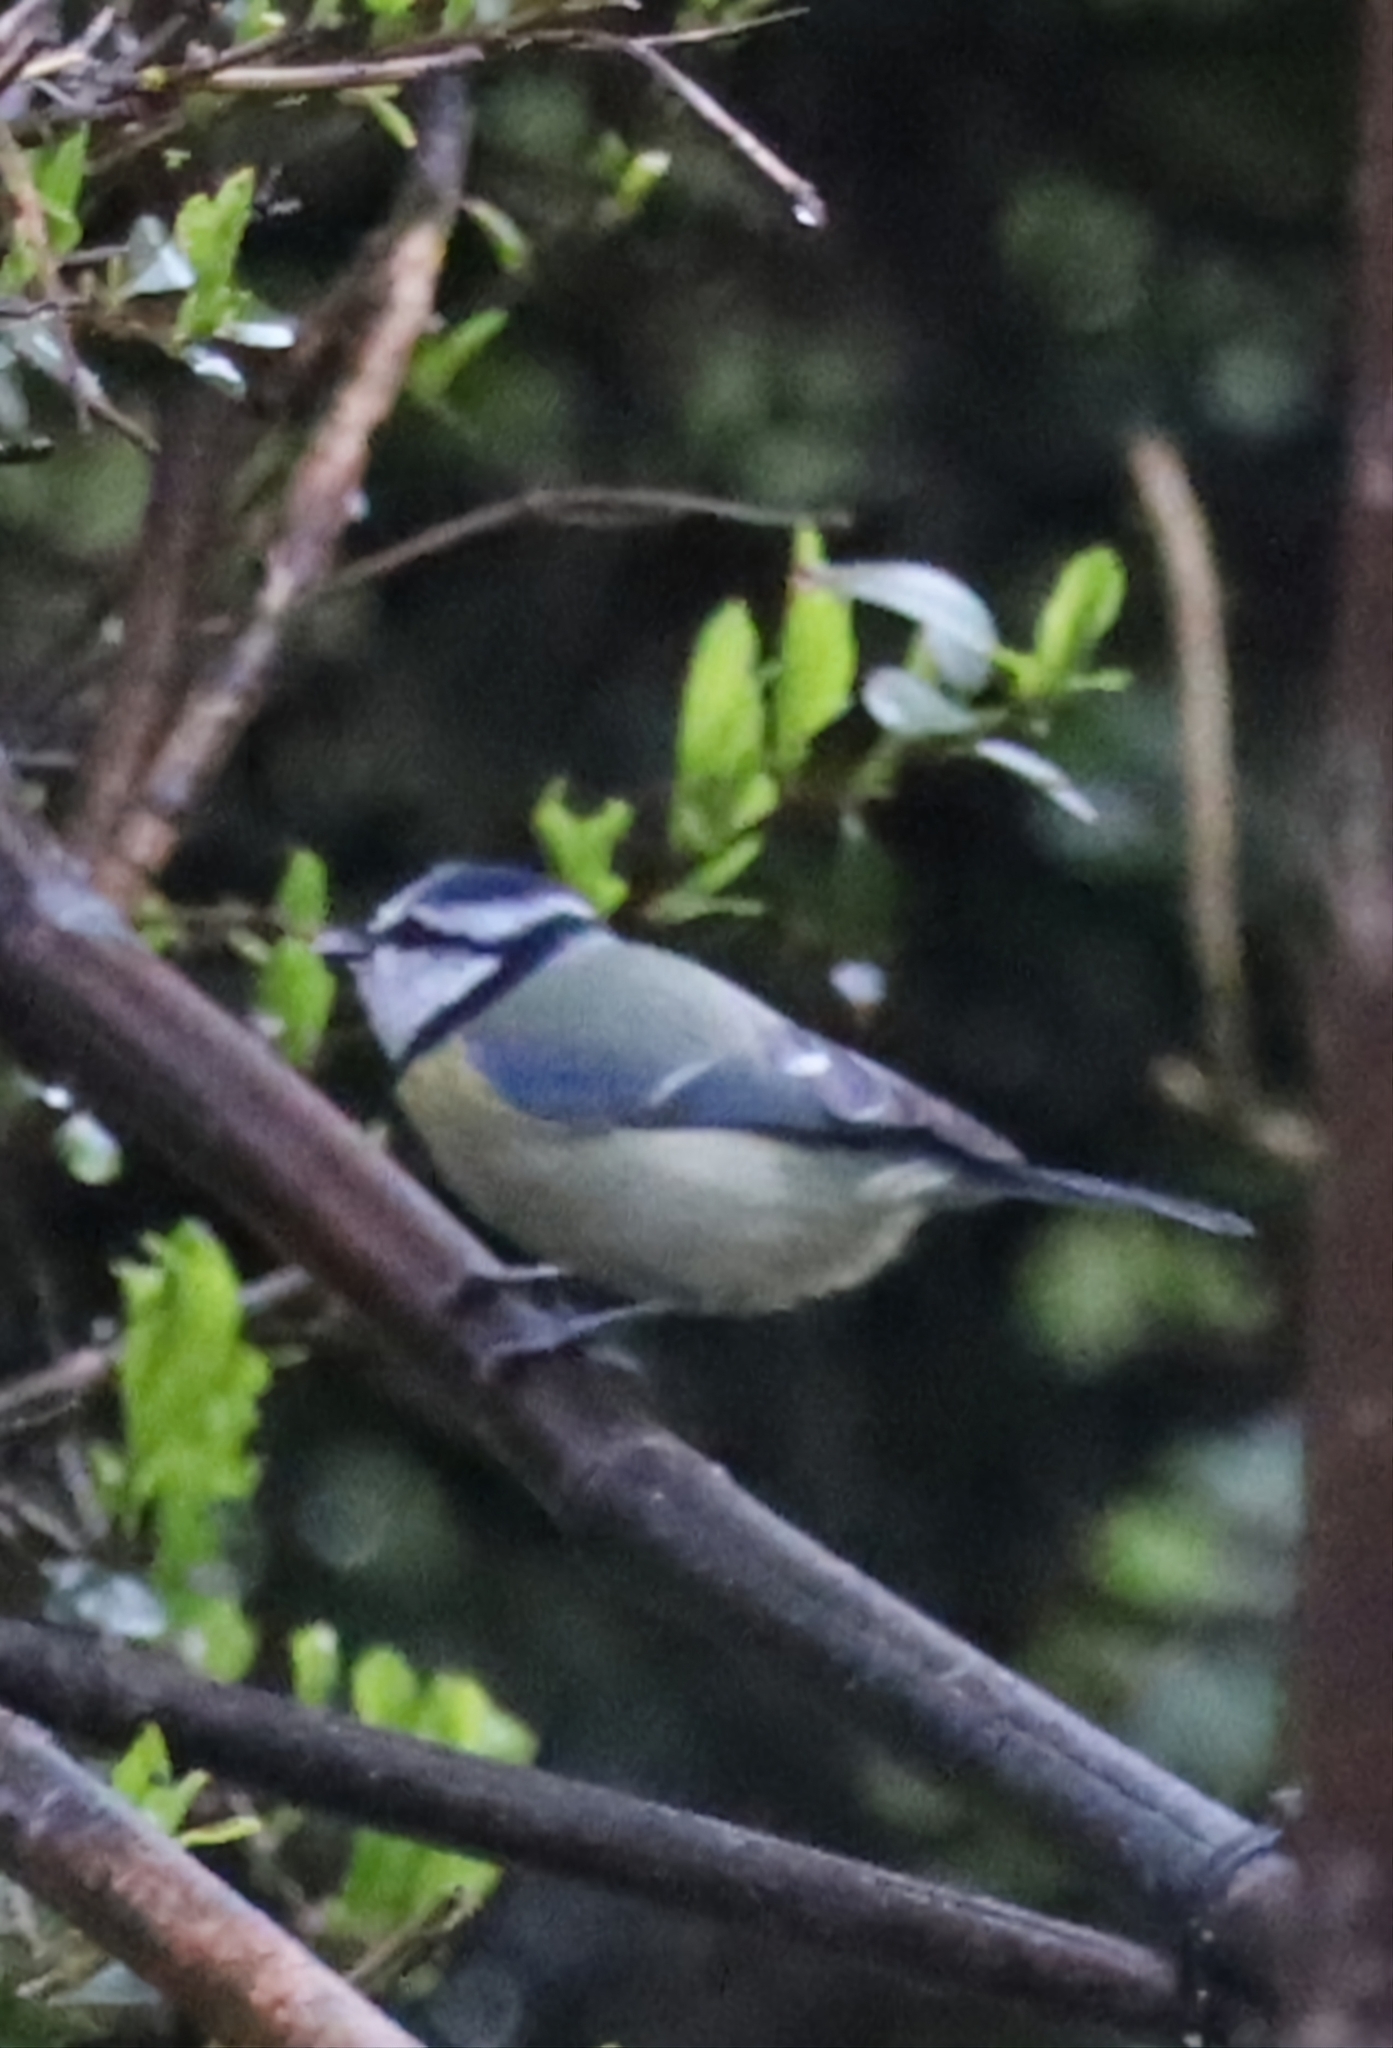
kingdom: Animalia
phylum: Chordata
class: Aves
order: Passeriformes
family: Paridae
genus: Cyanistes
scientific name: Cyanistes caeruleus
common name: Eurasian blue tit
